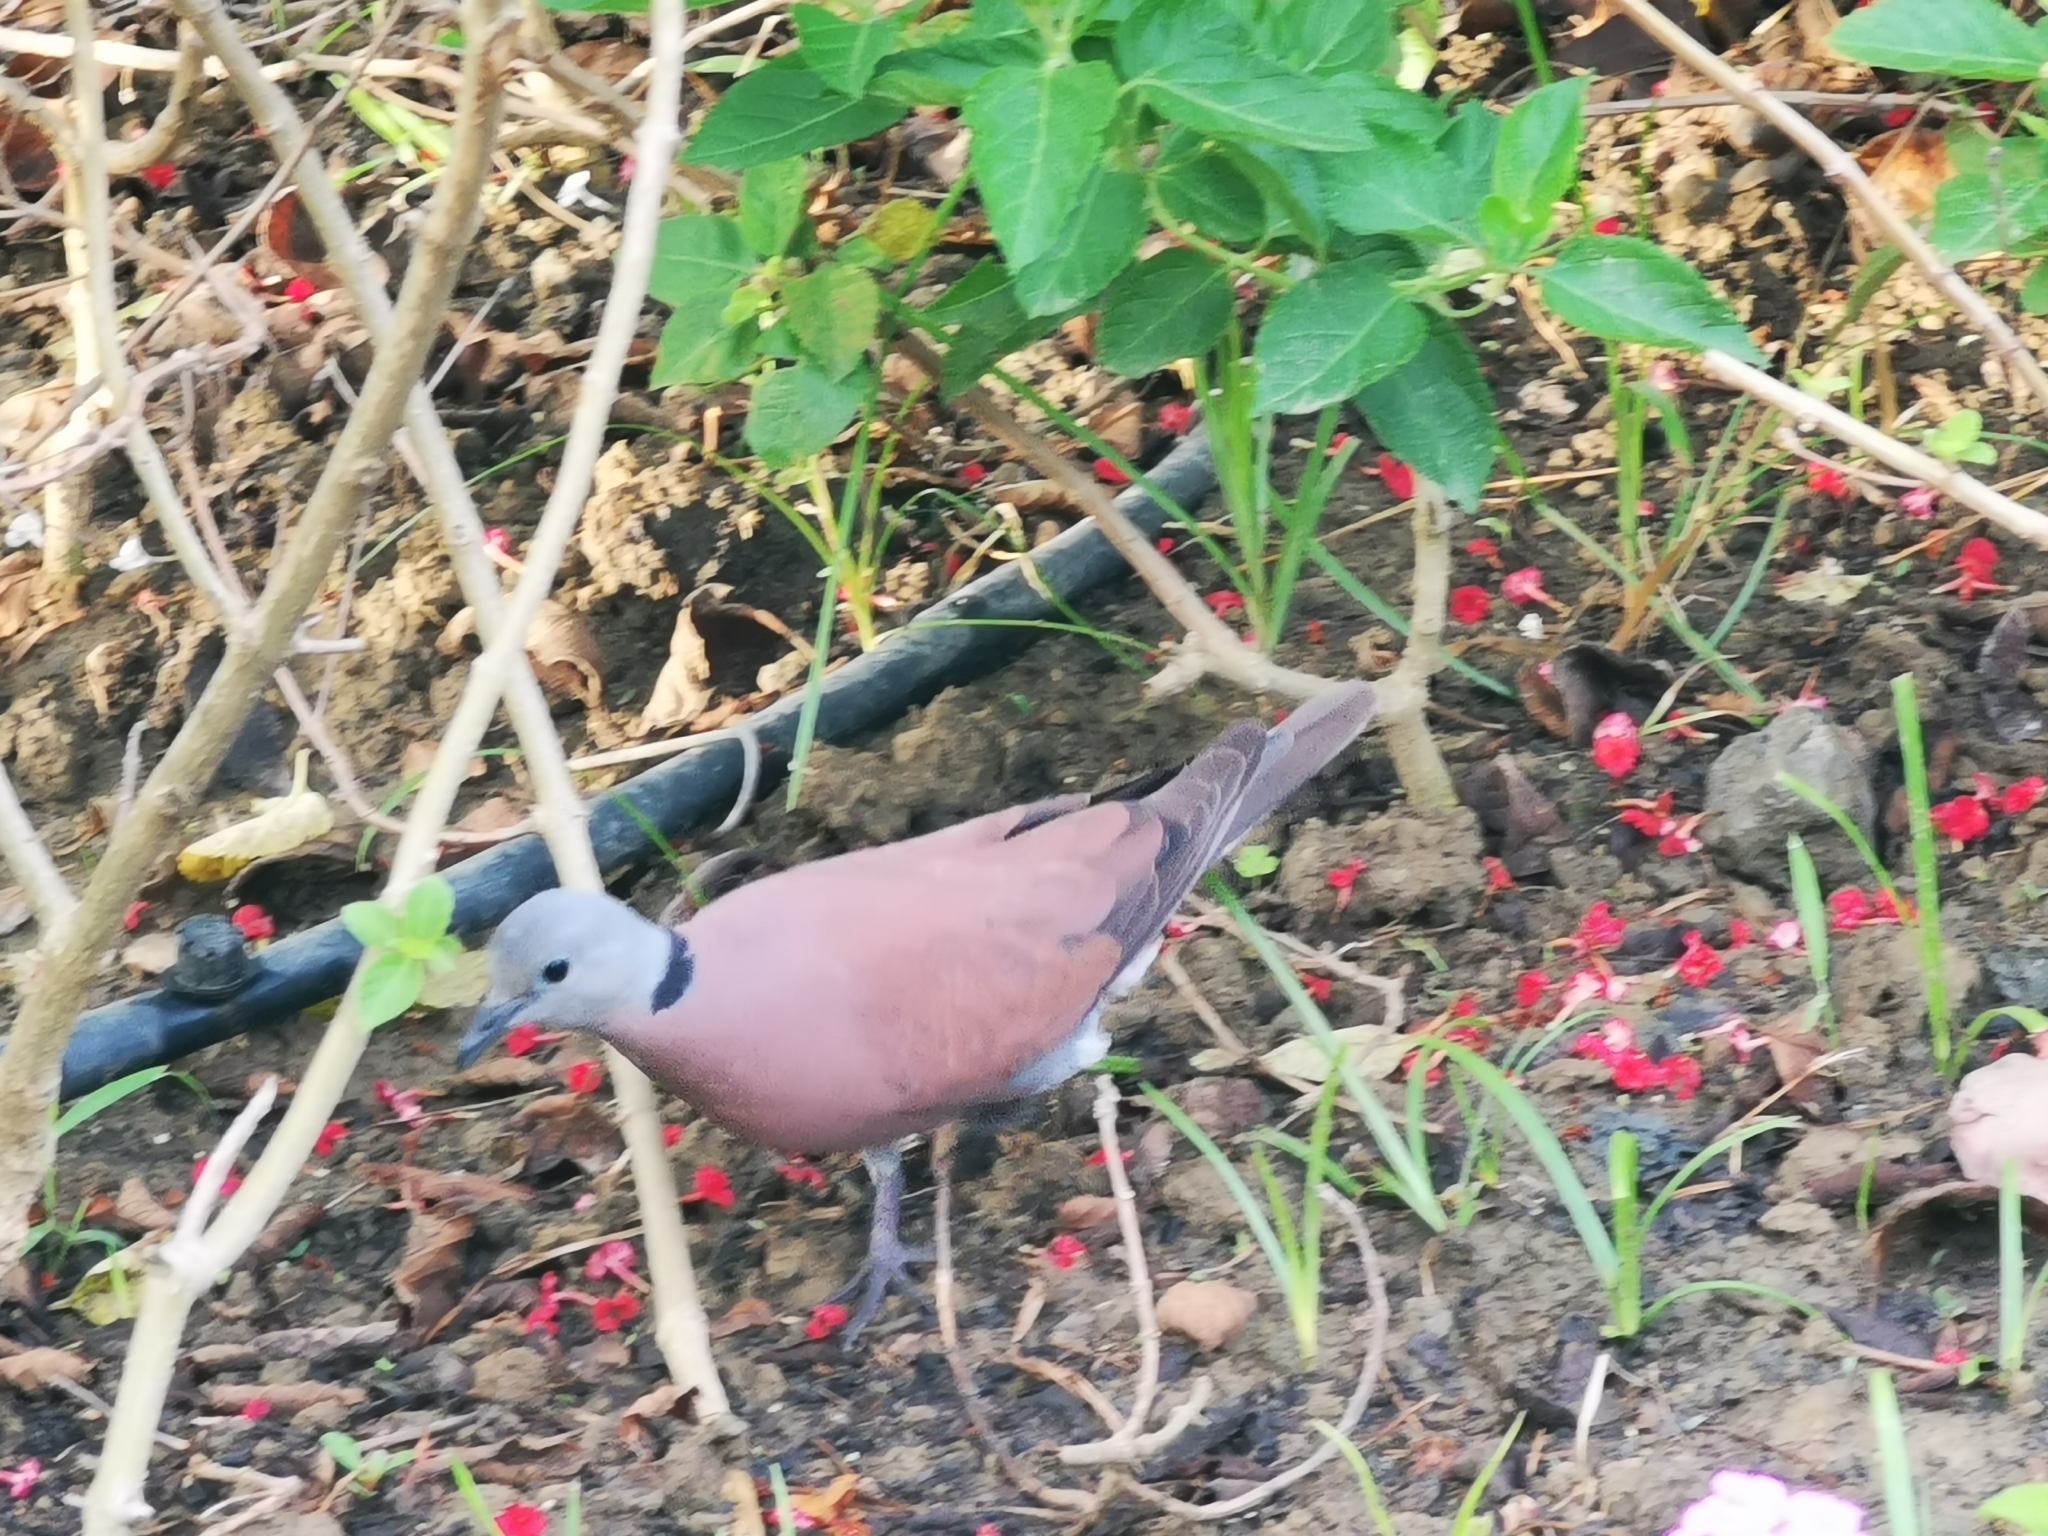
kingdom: Animalia
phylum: Chordata
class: Aves
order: Columbiformes
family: Columbidae
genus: Streptopelia
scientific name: Streptopelia tranquebarica
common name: Red turtle dove
